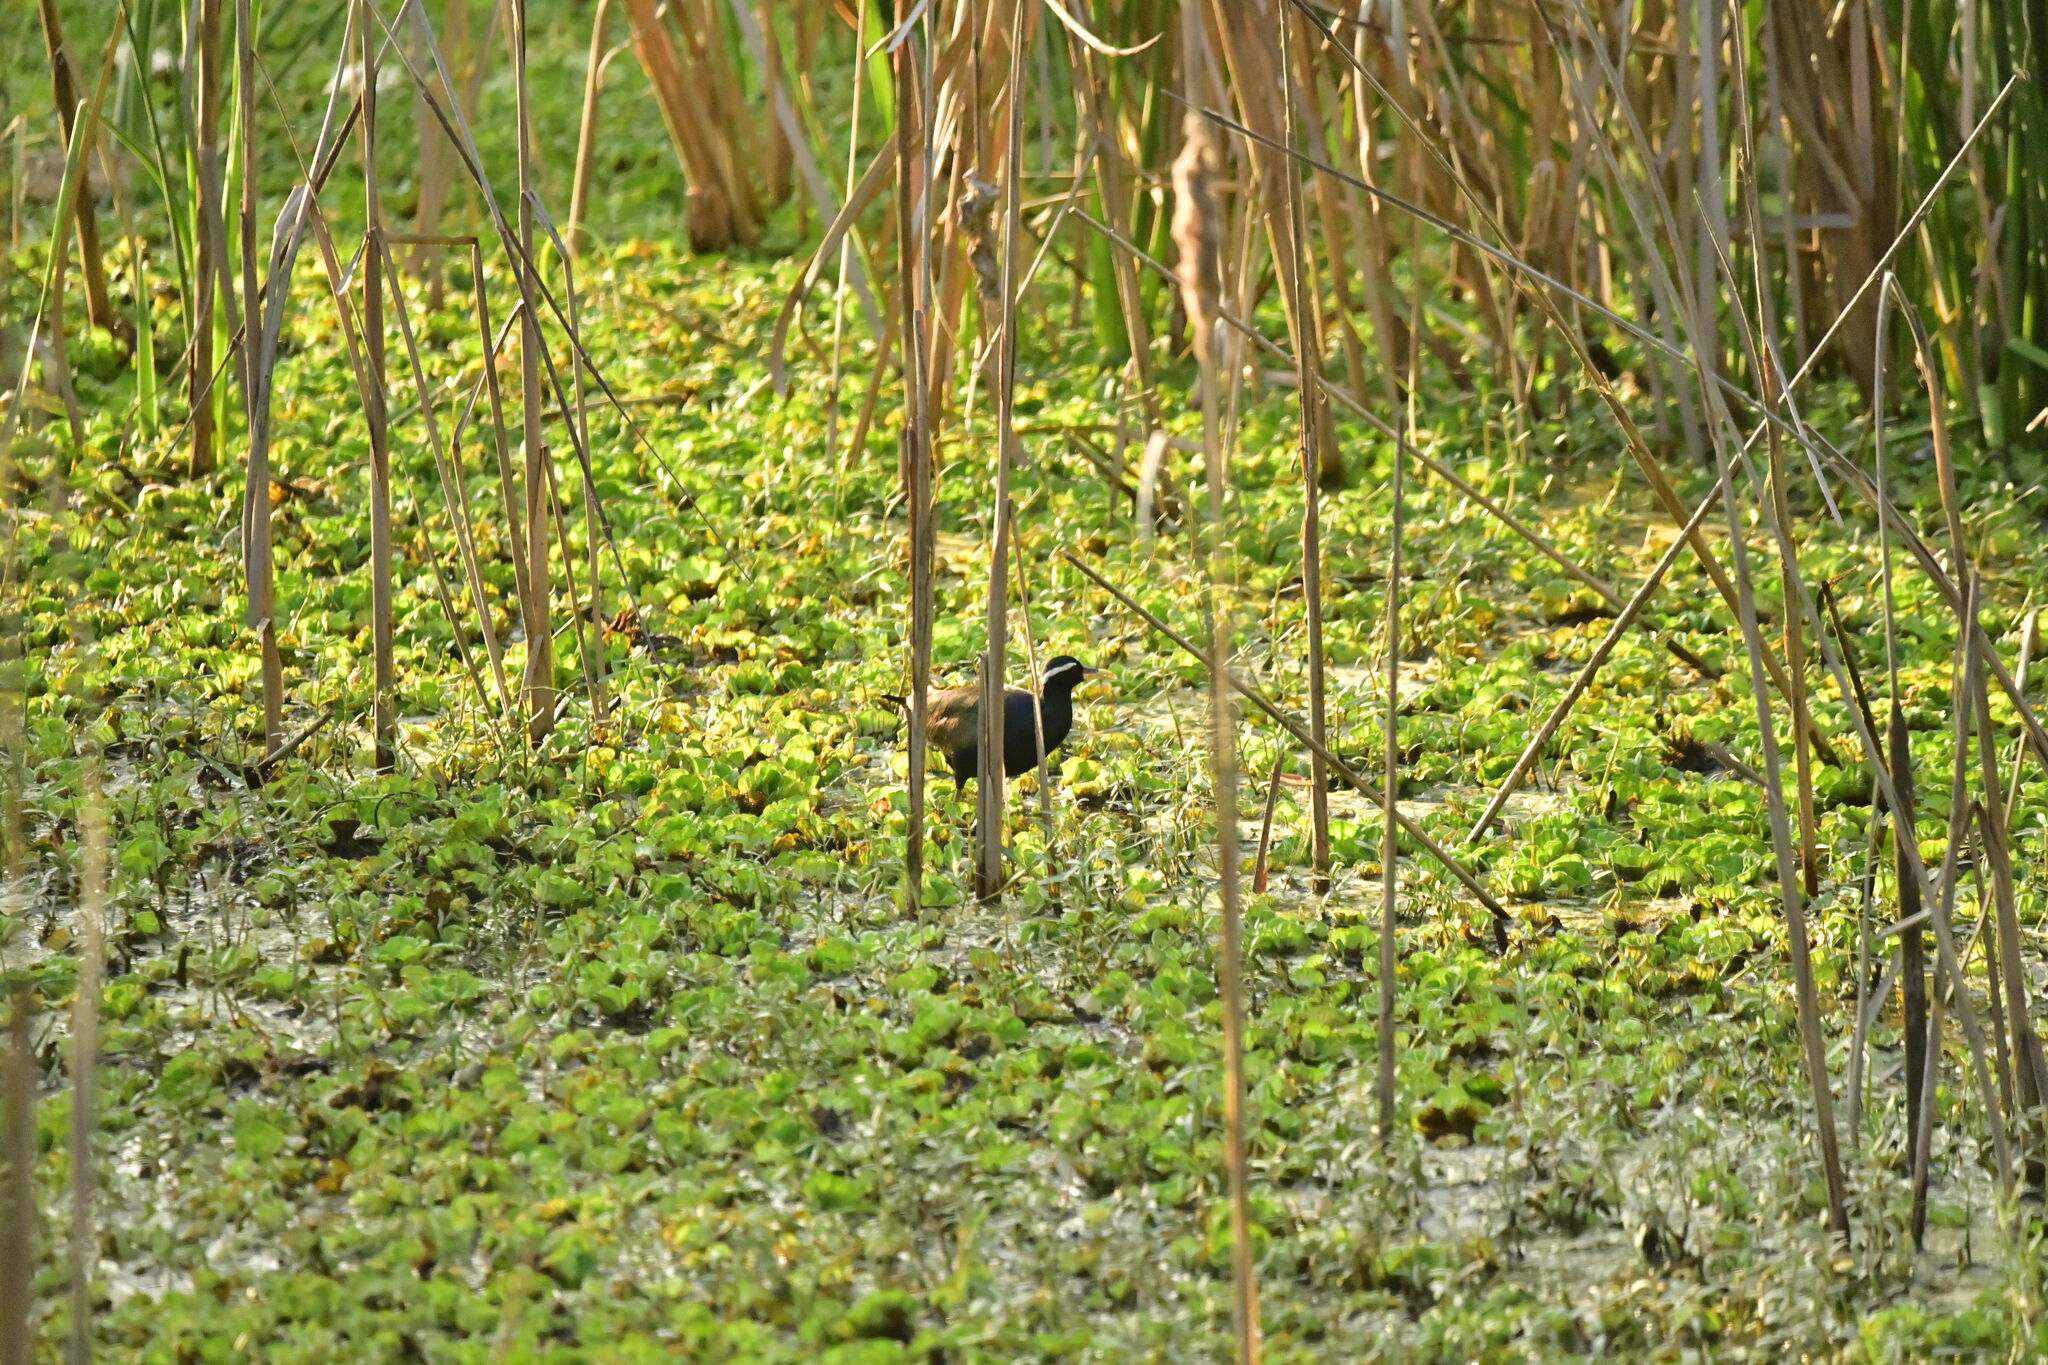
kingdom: Animalia
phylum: Chordata
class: Aves
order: Charadriiformes
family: Jacanidae
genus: Metopidius
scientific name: Metopidius indicus
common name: Bronze-winged jacana
